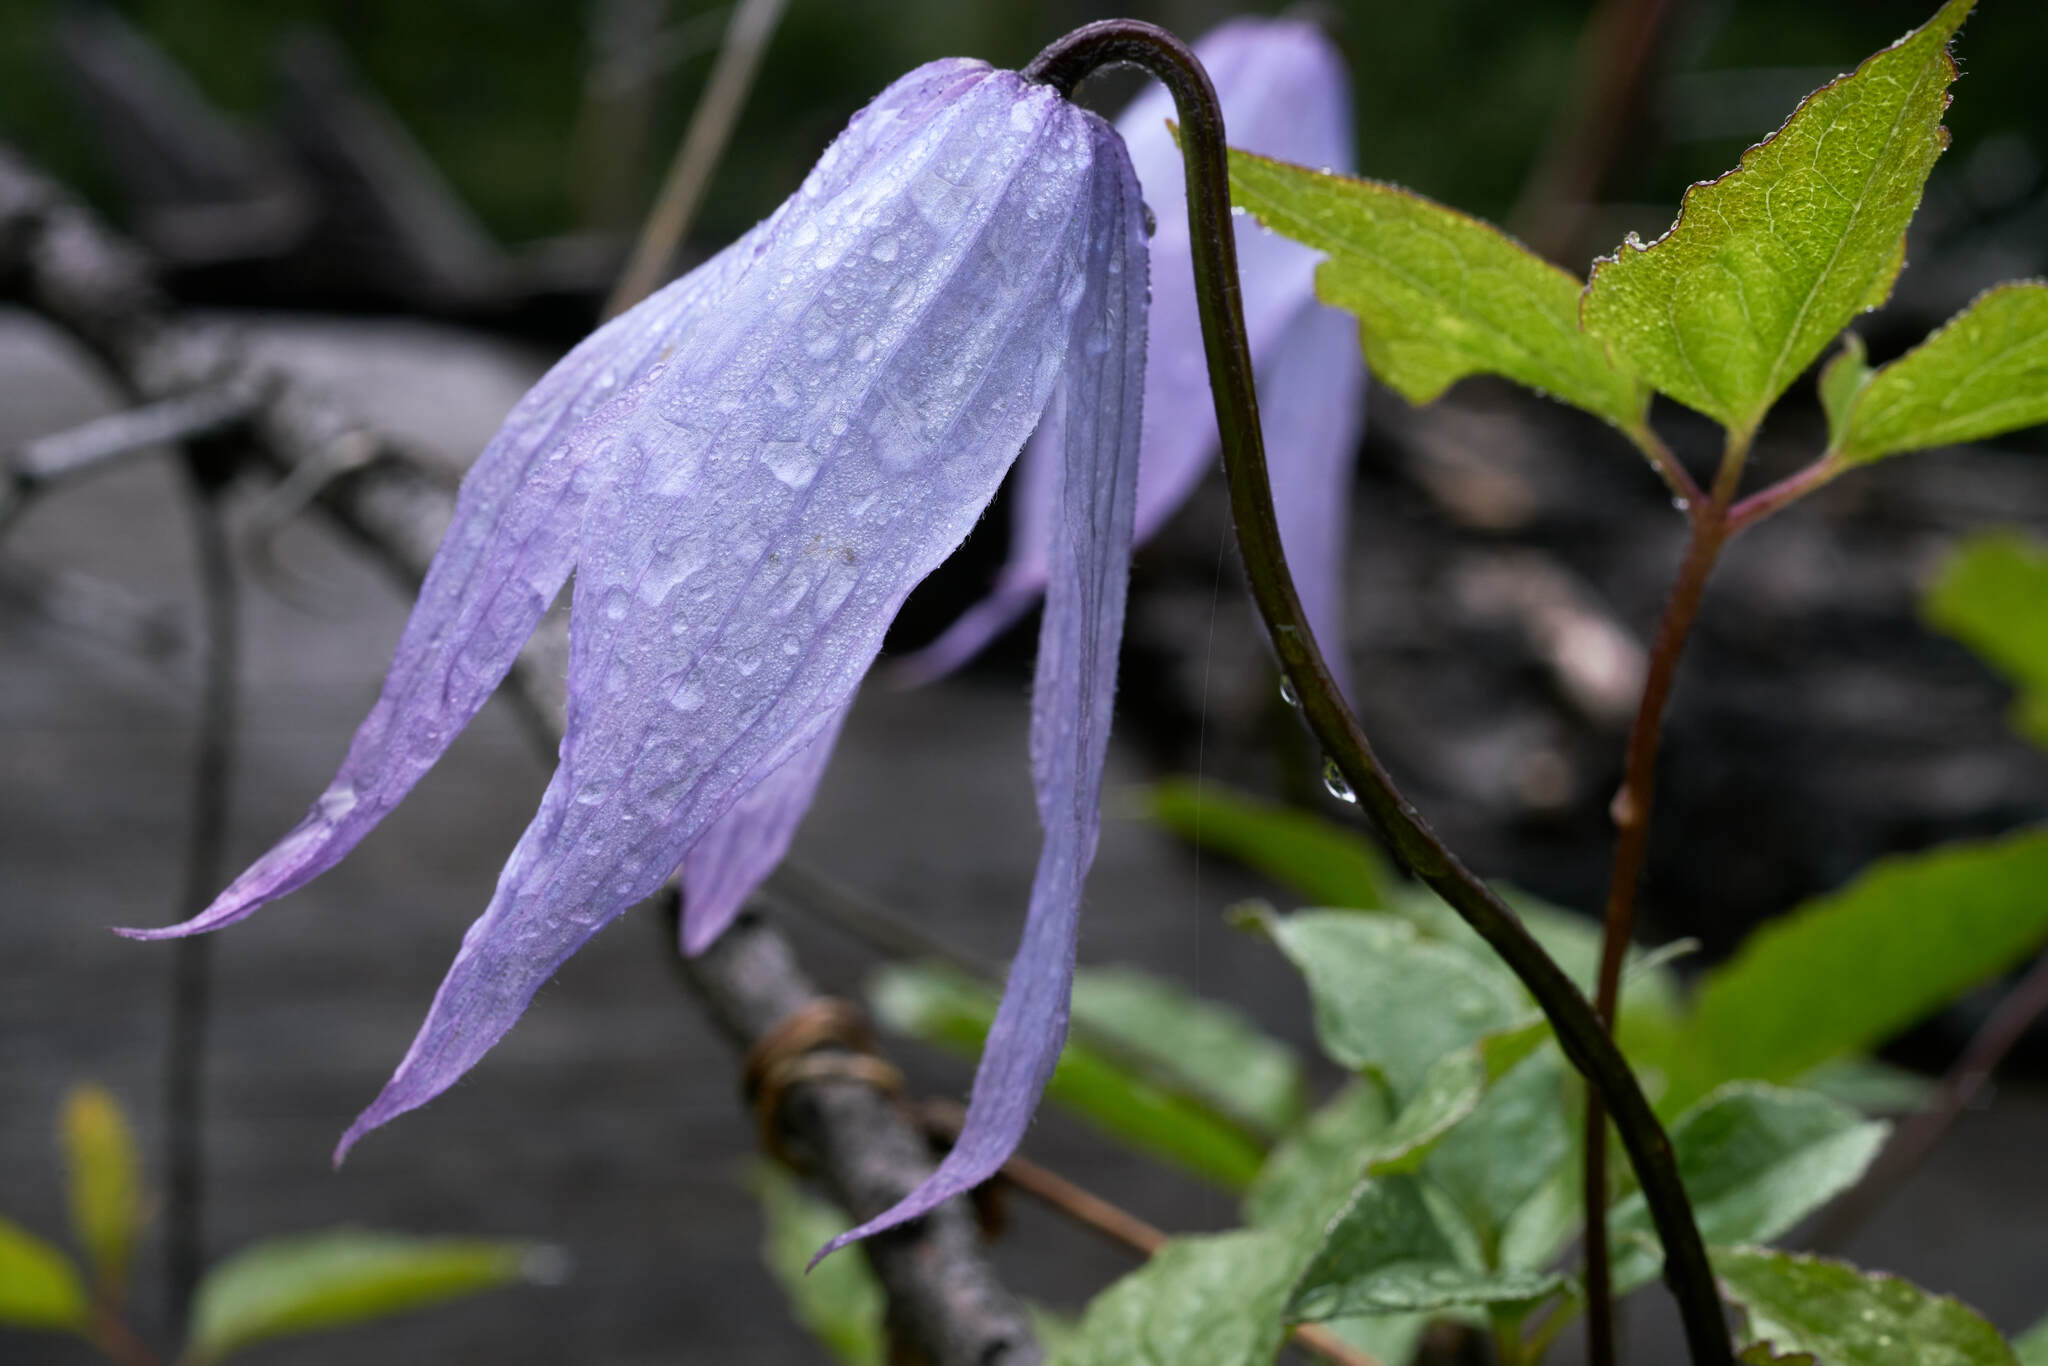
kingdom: Plantae
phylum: Tracheophyta
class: Magnoliopsida
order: Ranunculales
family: Ranunculaceae
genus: Clematis
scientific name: Clematis occidentalis
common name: Purple clematis
